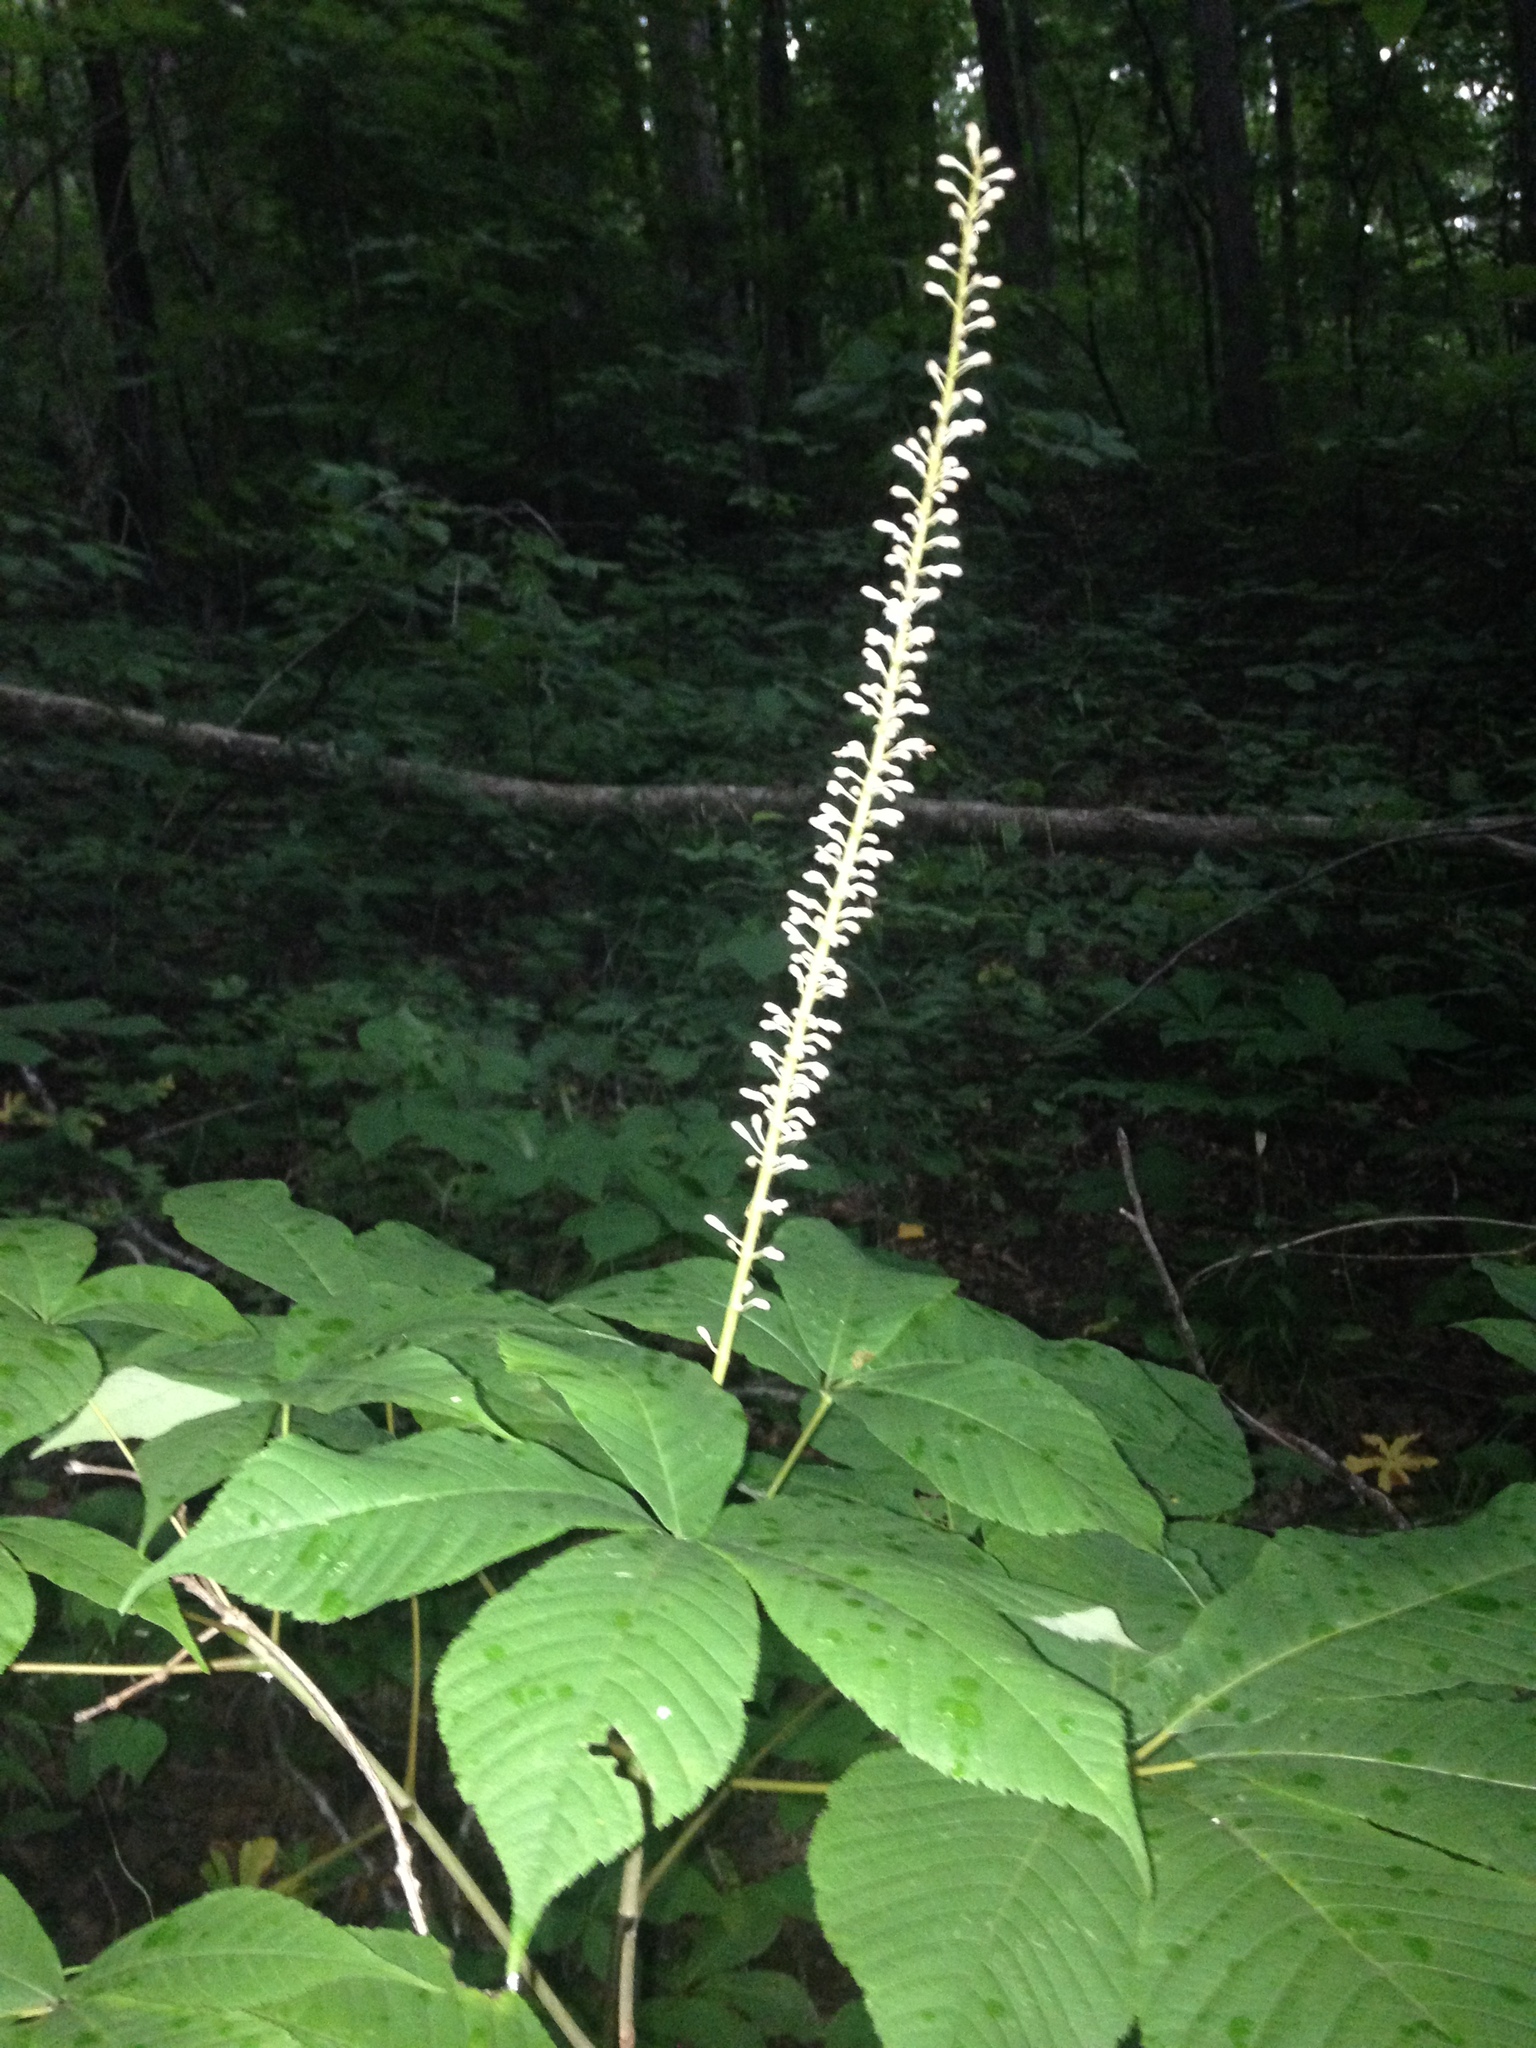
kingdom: Plantae
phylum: Tracheophyta
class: Magnoliopsida
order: Sapindales
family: Sapindaceae
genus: Aesculus
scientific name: Aesculus parviflora
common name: Bottlebrush buckeye
